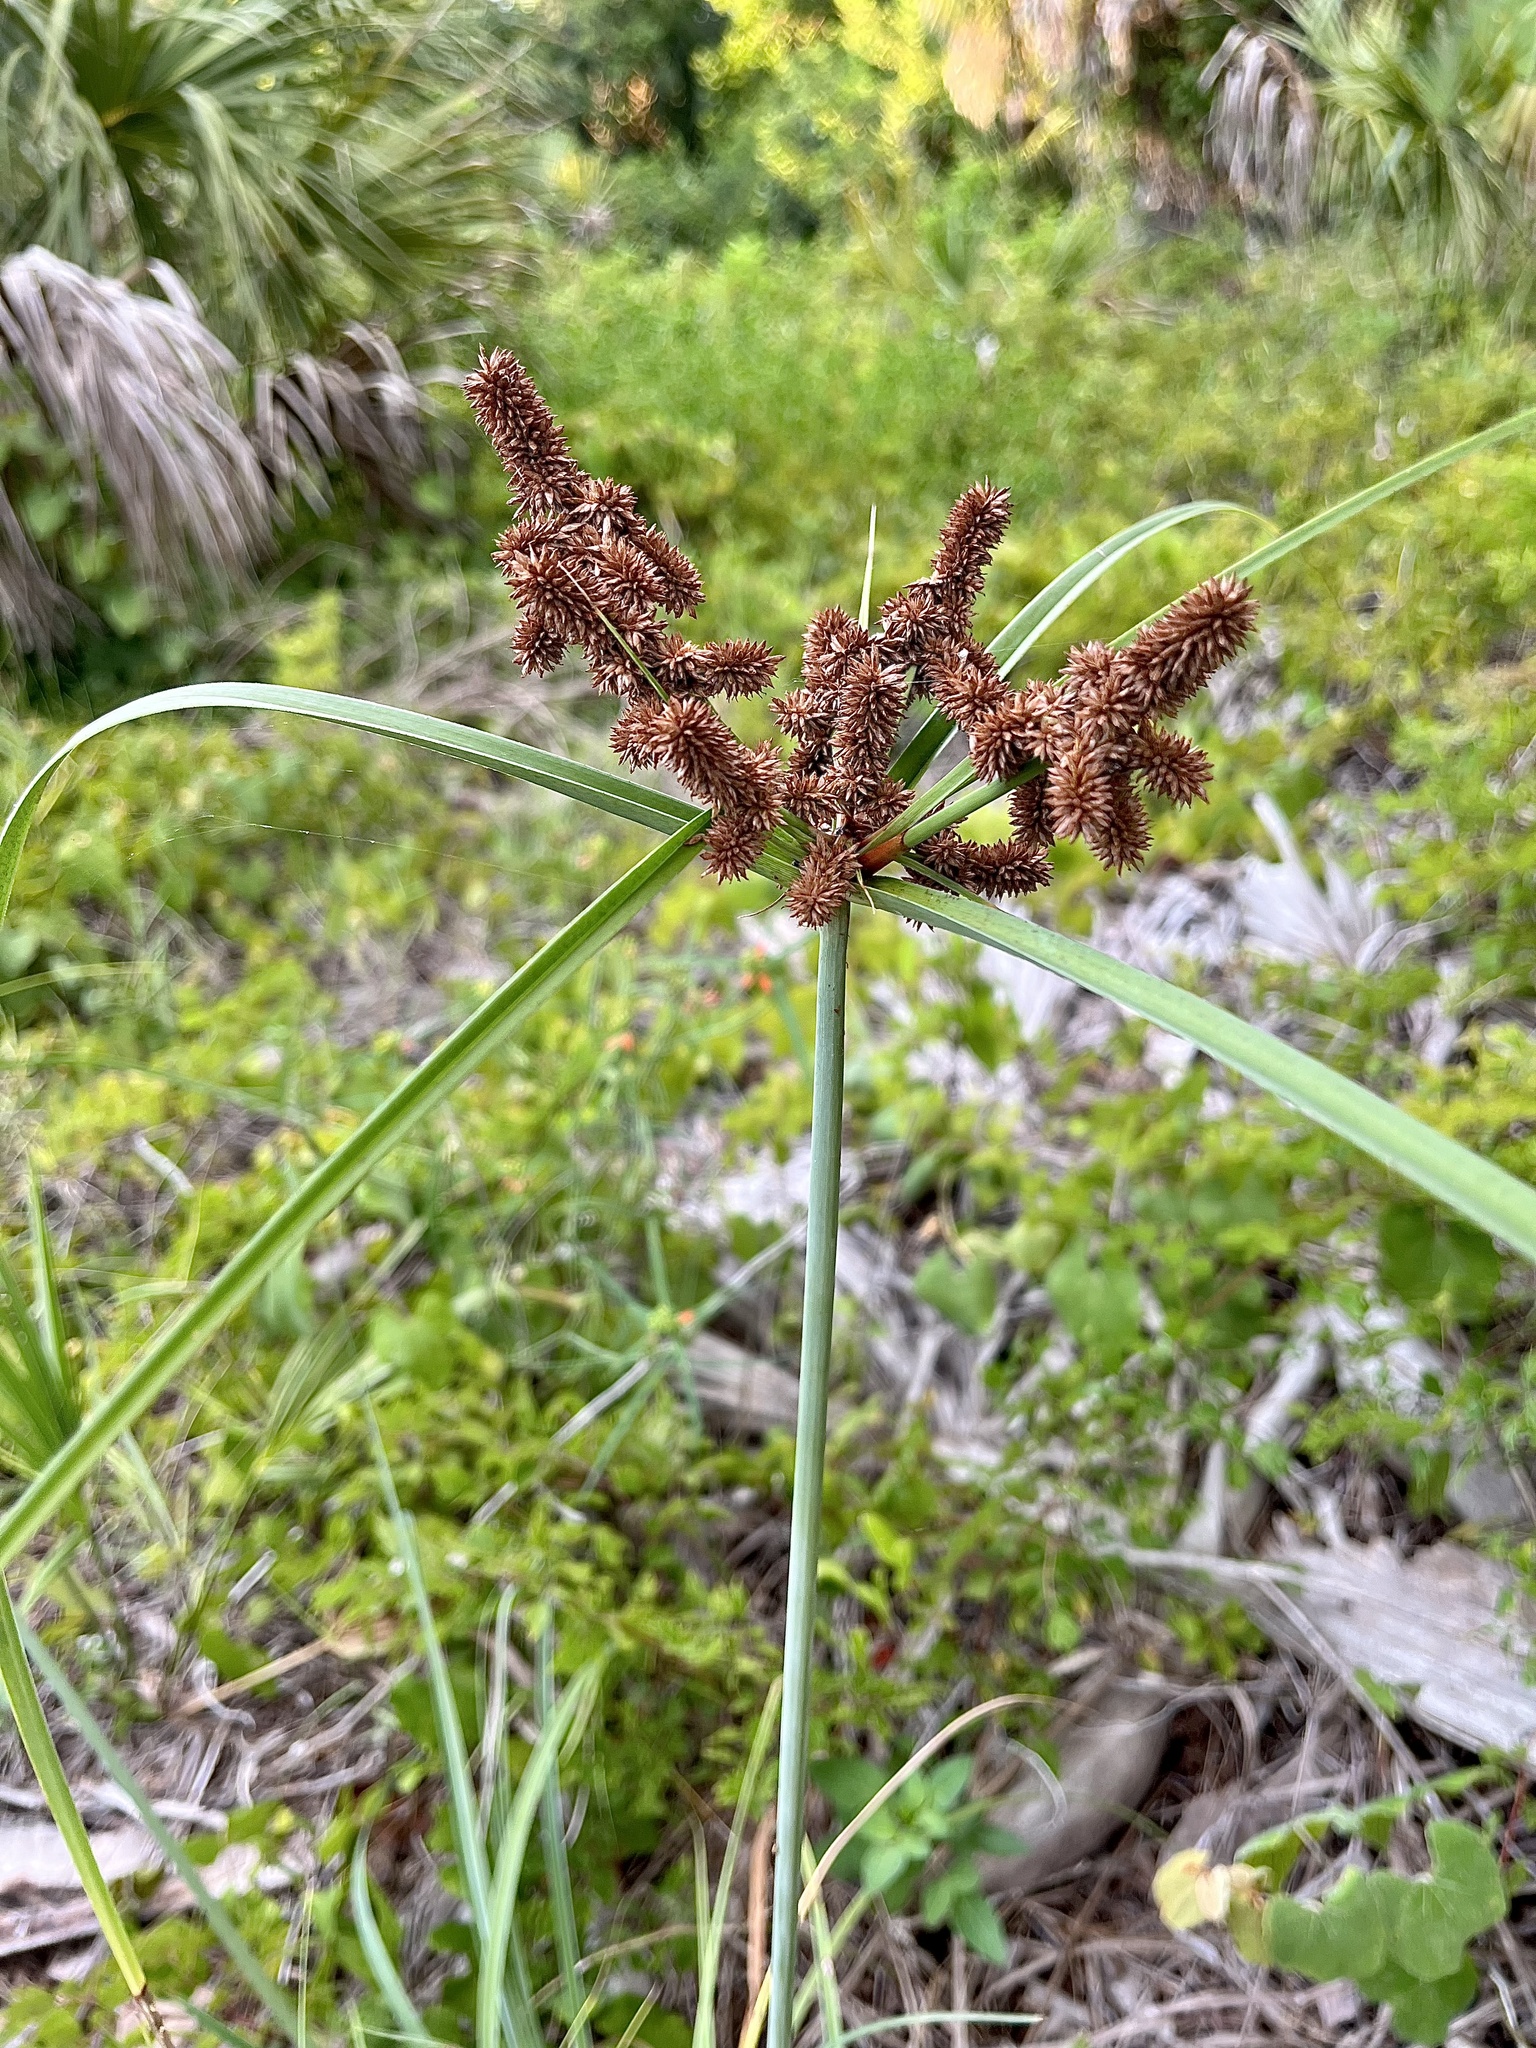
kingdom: Plantae
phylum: Tracheophyta
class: Liliopsida
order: Poales
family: Cyperaceae
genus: Cyperus
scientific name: Cyperus ligularis
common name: Swamp flat sedge
